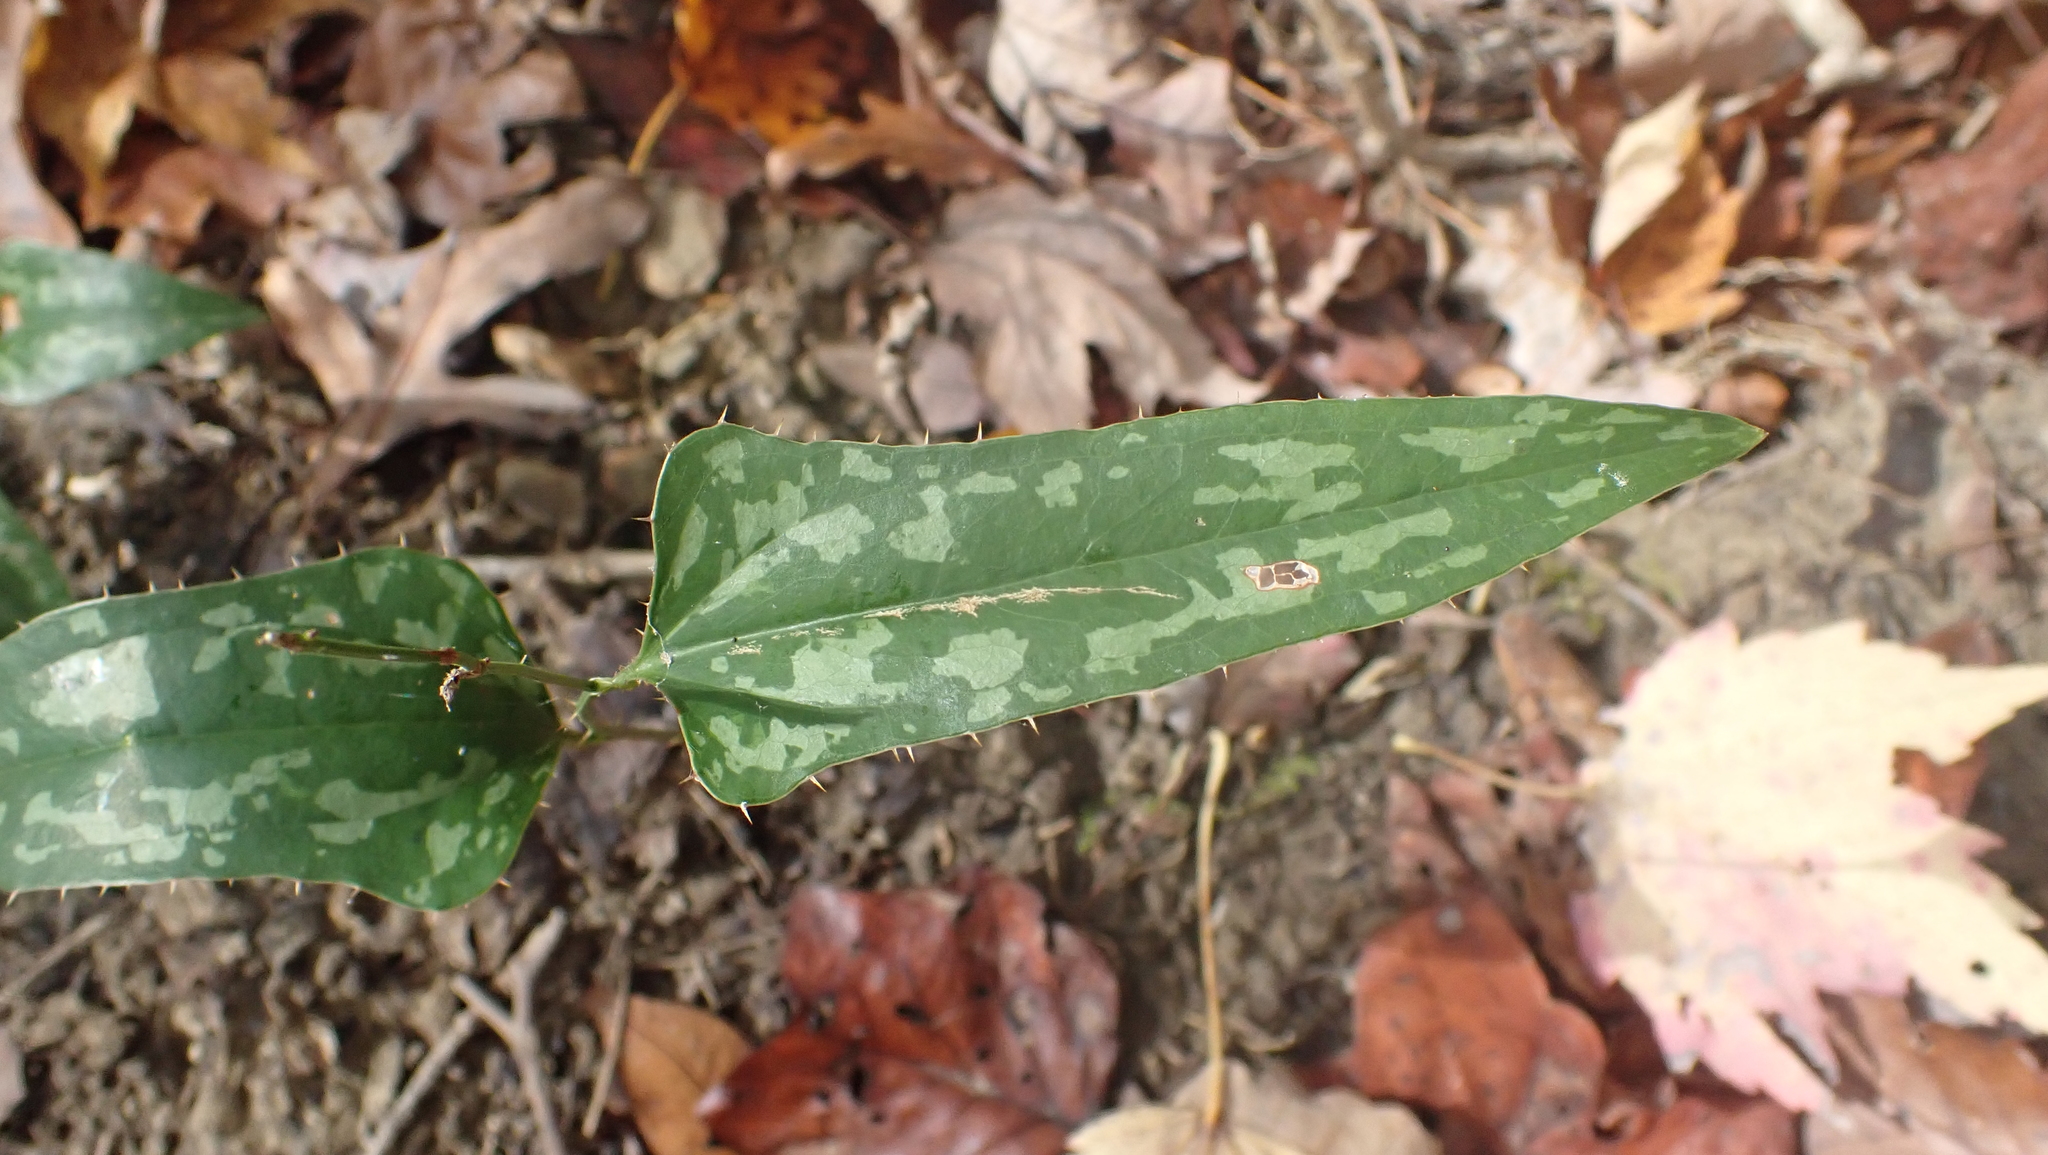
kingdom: Plantae
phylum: Tracheophyta
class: Liliopsida
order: Liliales
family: Smilacaceae
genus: Smilax
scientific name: Smilax bona-nox
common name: Catbrier
